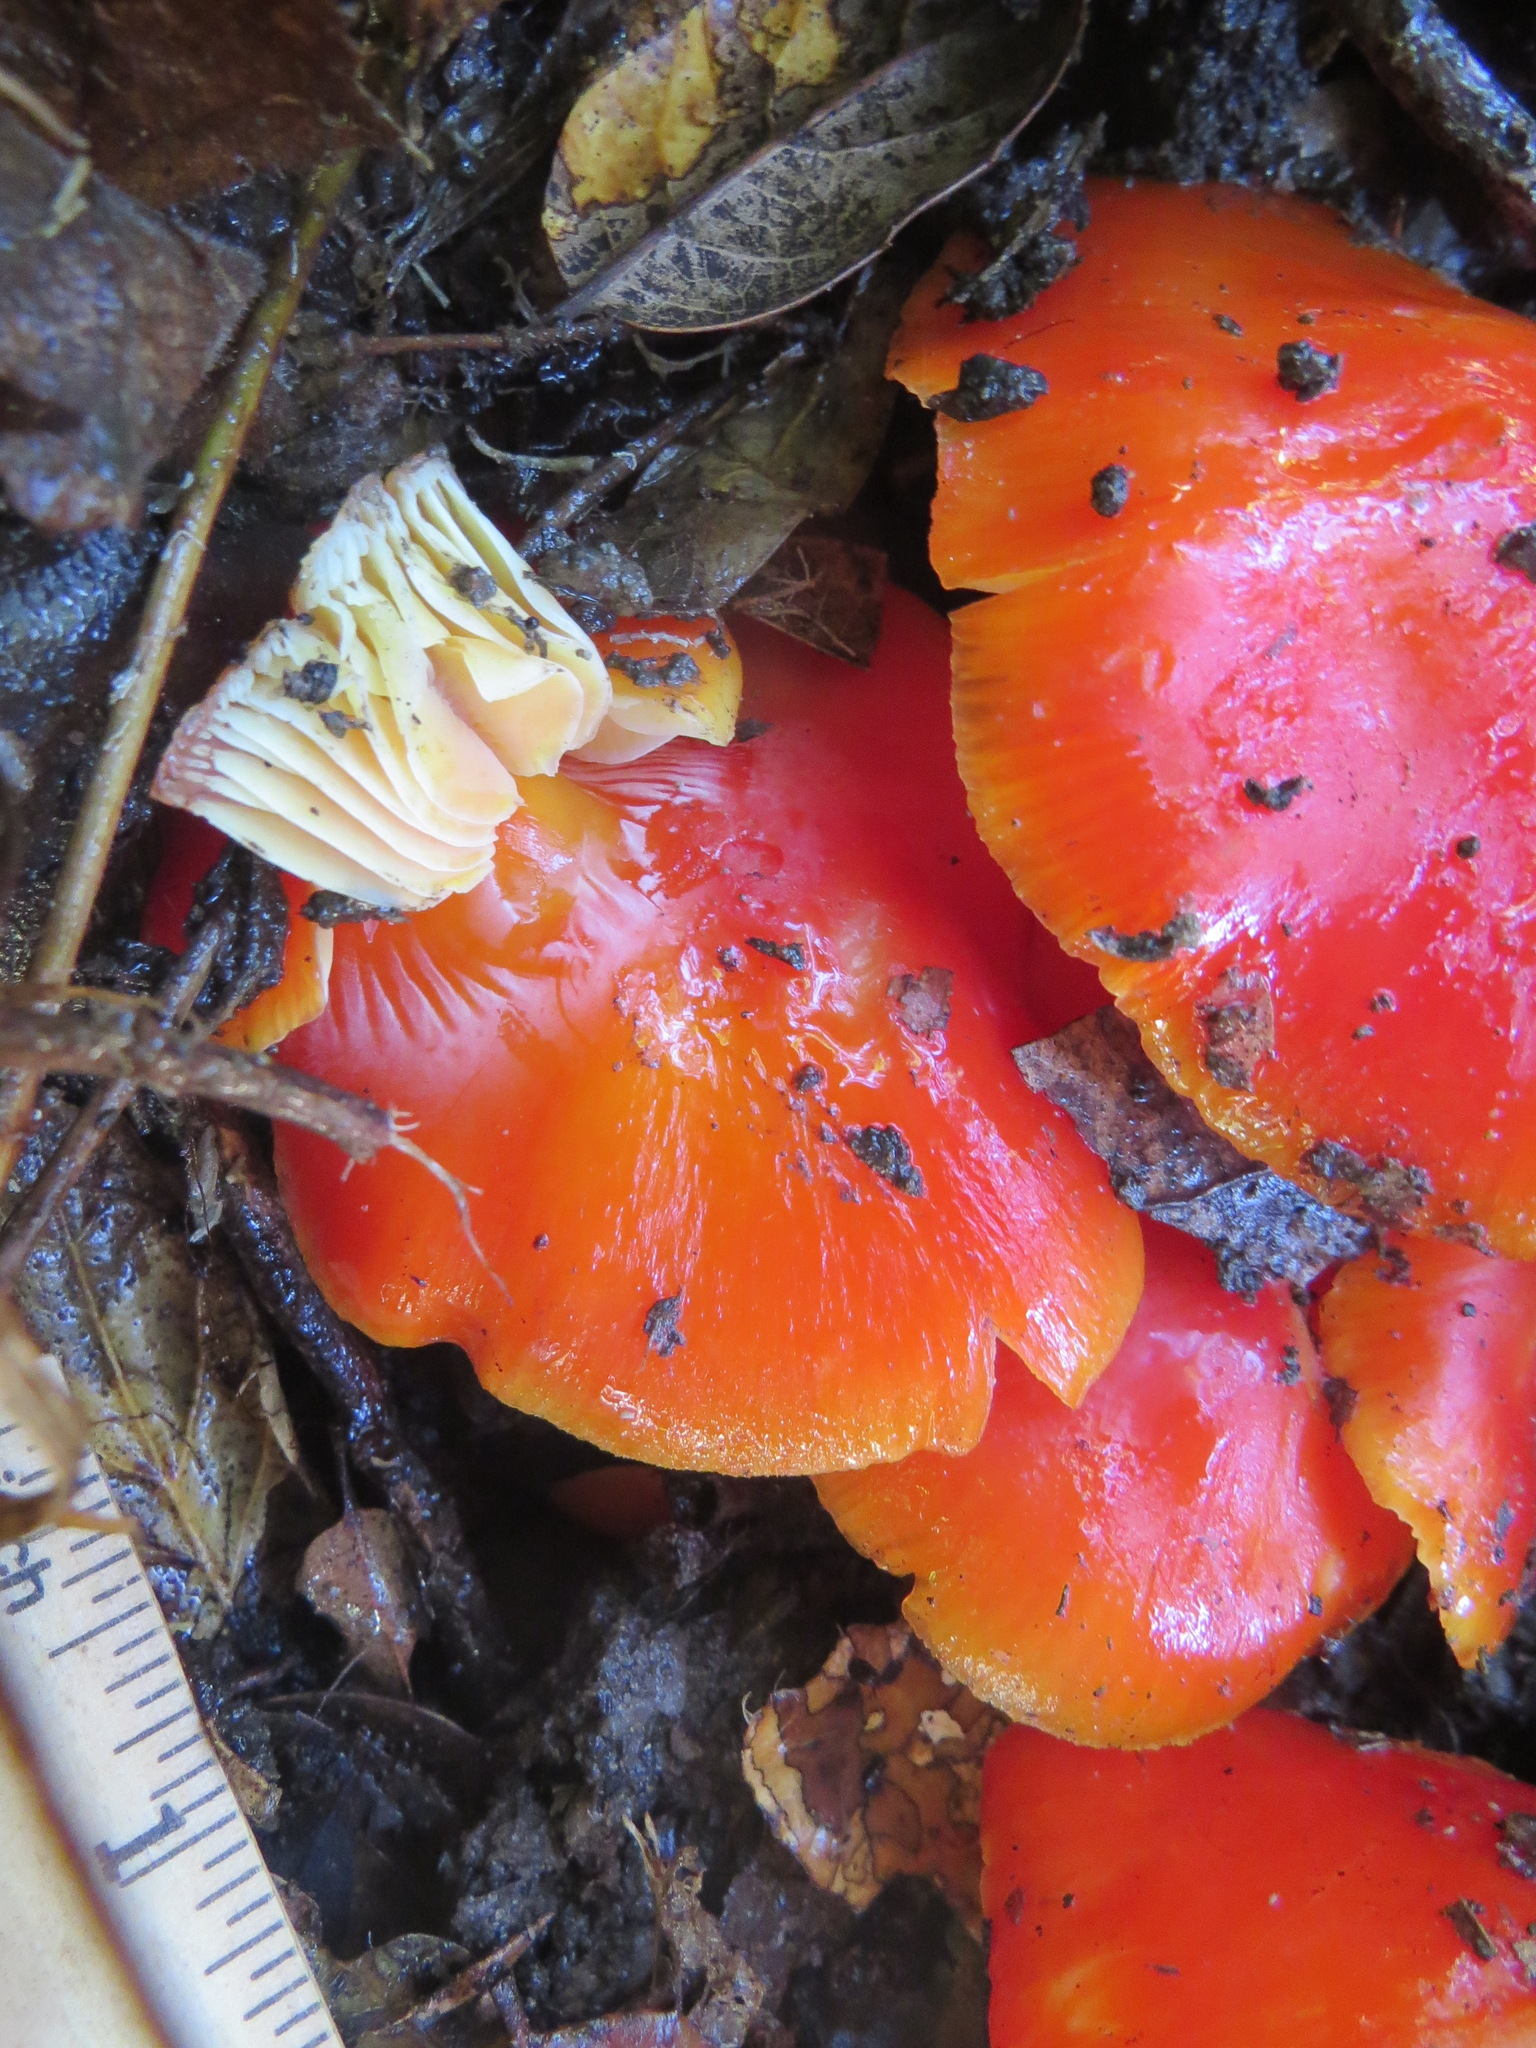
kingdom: Fungi
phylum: Basidiomycota
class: Agaricomycetes
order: Agaricales
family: Hygrophoraceae
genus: Hygrocybe
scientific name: Hygrocybe laetissima
